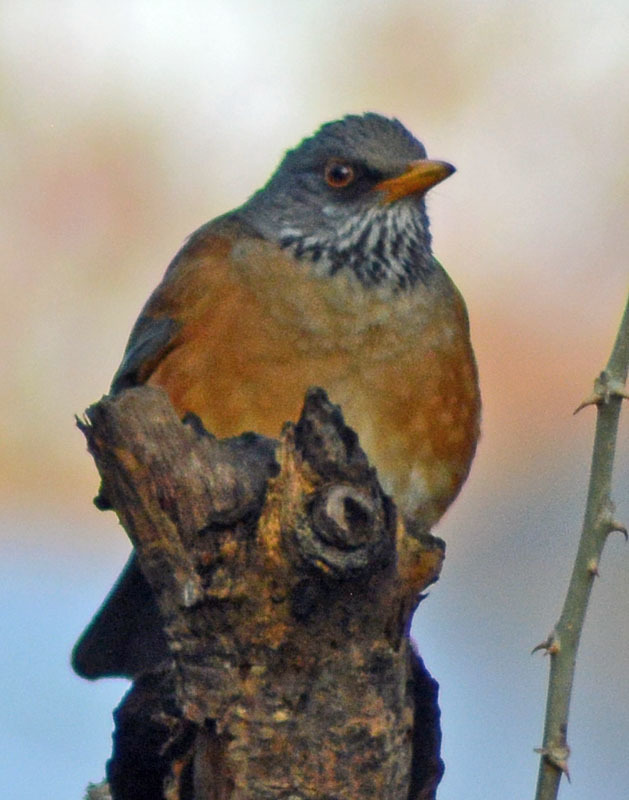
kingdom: Animalia
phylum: Chordata
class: Aves
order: Passeriformes
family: Turdidae
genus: Turdus
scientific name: Turdus rufopalliatus
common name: Rufous-backed robin
